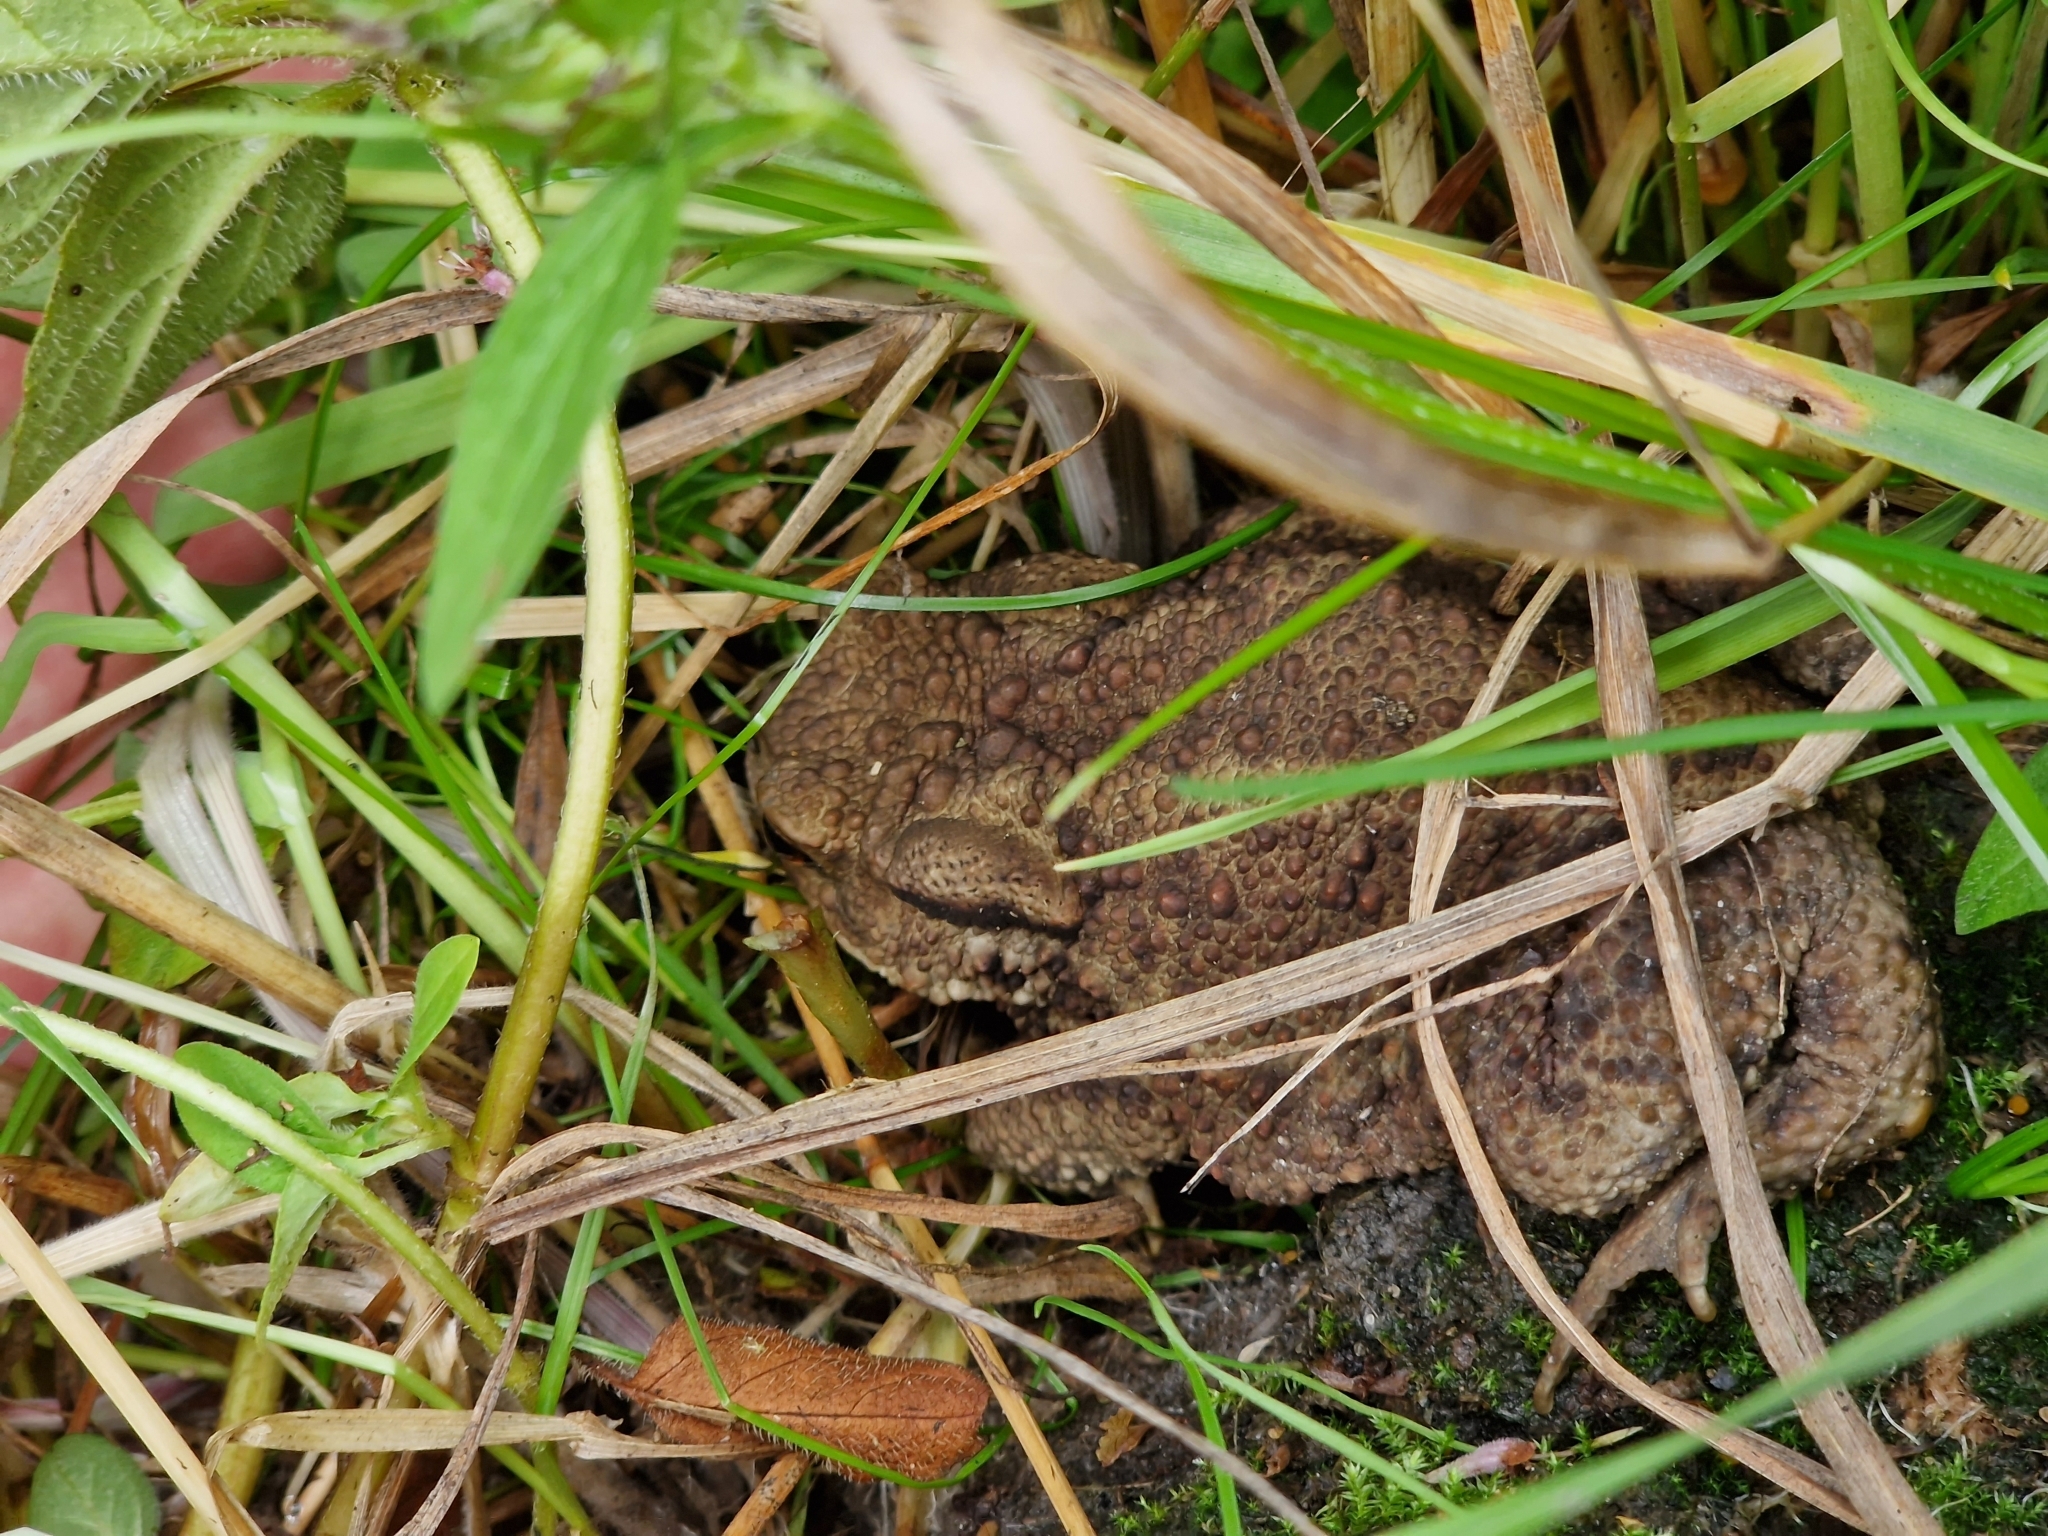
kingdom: Animalia
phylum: Chordata
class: Amphibia
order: Anura
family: Bufonidae
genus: Bufo
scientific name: Bufo bufo
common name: Common toad
